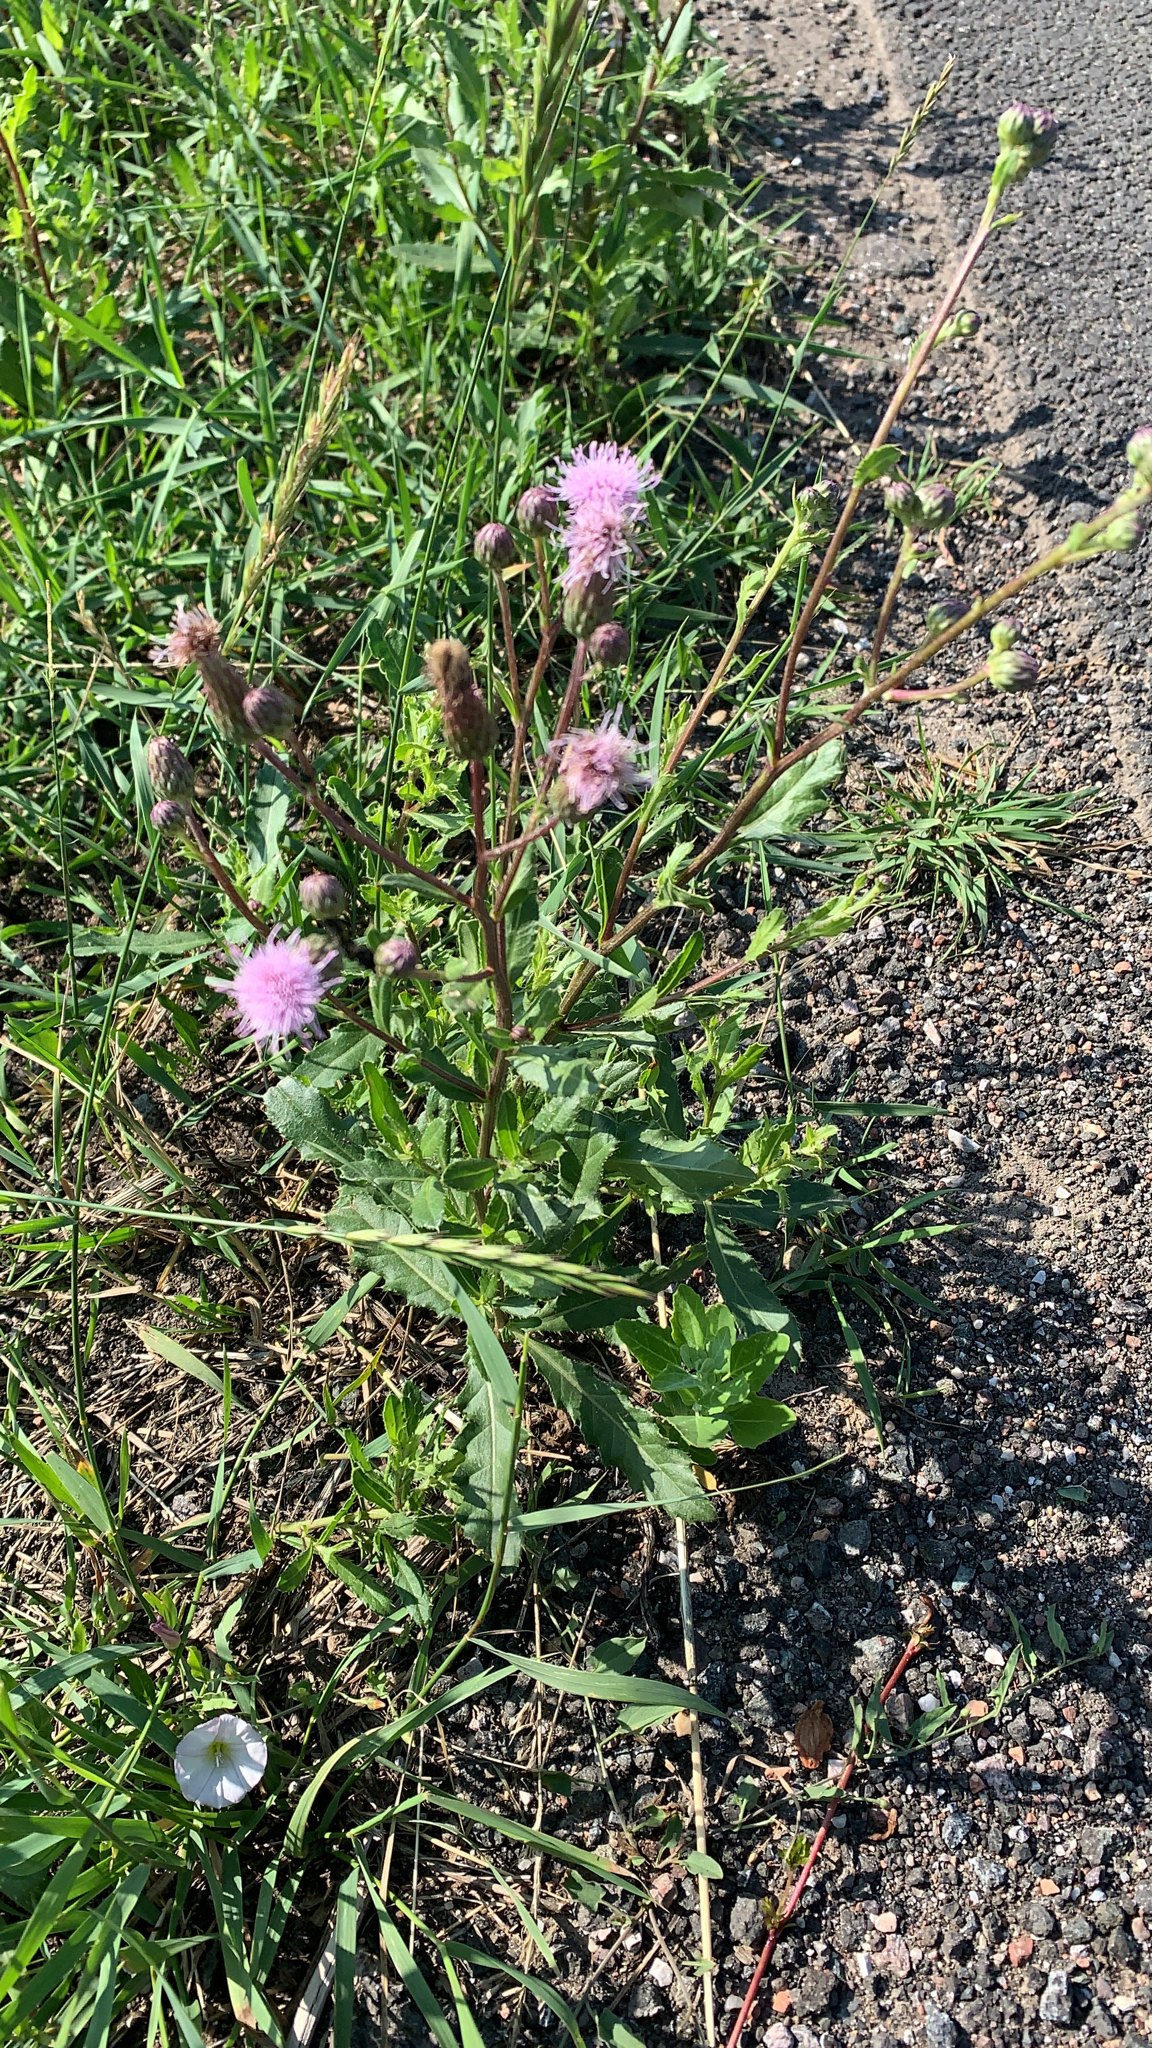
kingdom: Plantae
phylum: Tracheophyta
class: Magnoliopsida
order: Asterales
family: Asteraceae
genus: Cirsium
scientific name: Cirsium arvense
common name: Creeping thistle
